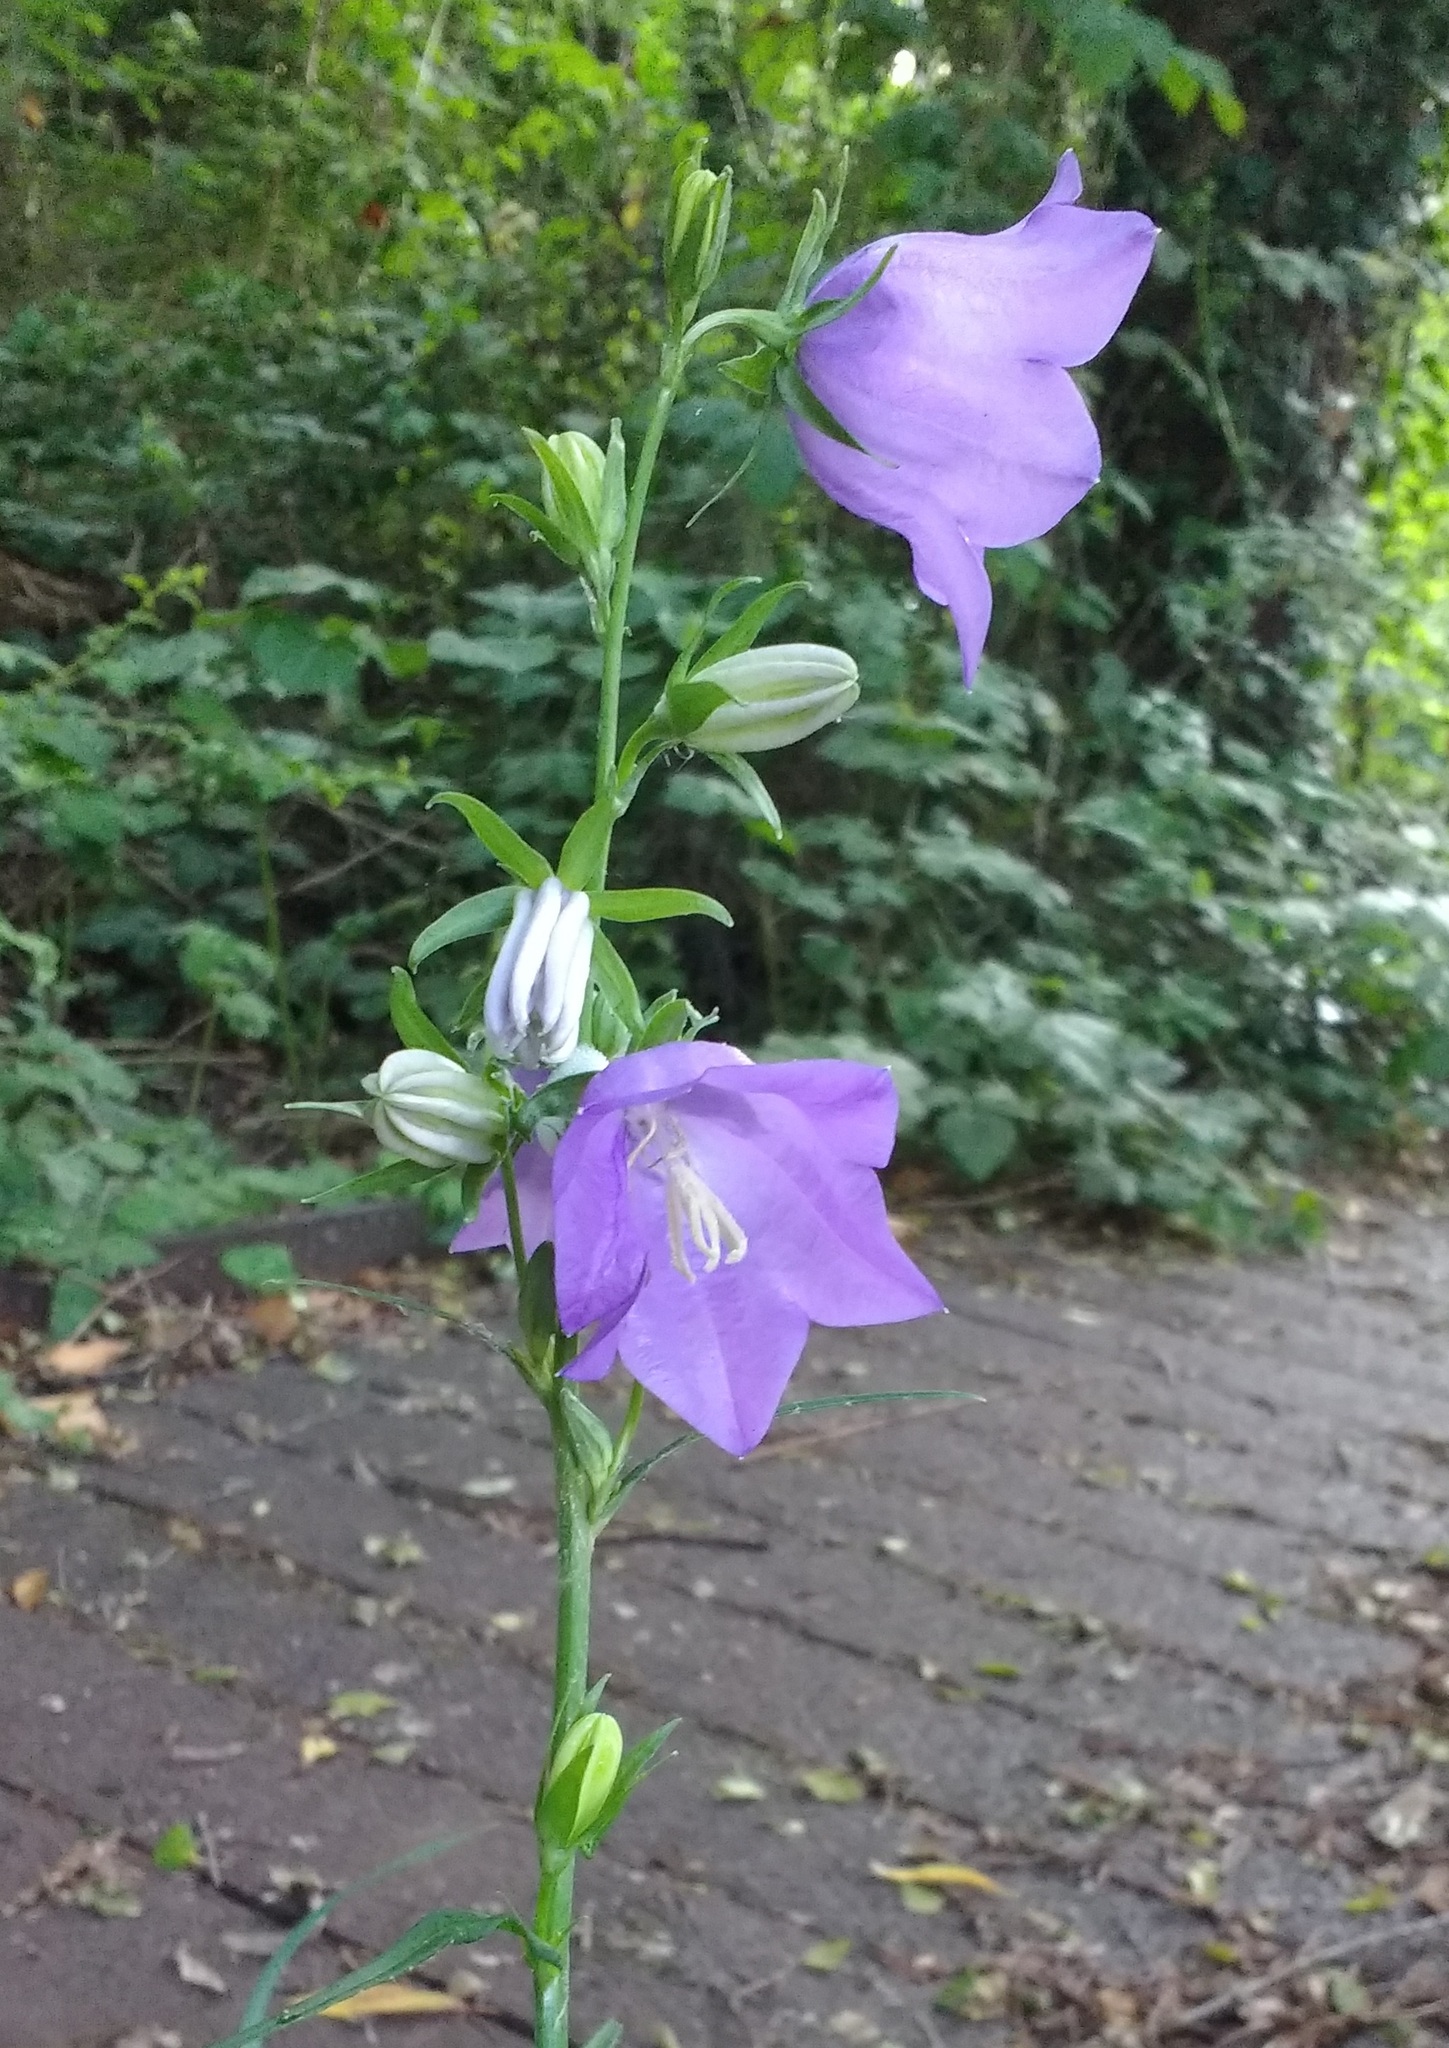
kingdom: Plantae
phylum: Tracheophyta
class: Magnoliopsida
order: Asterales
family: Campanulaceae
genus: Campanula
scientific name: Campanula persicifolia
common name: Peach-leaved bellflower
